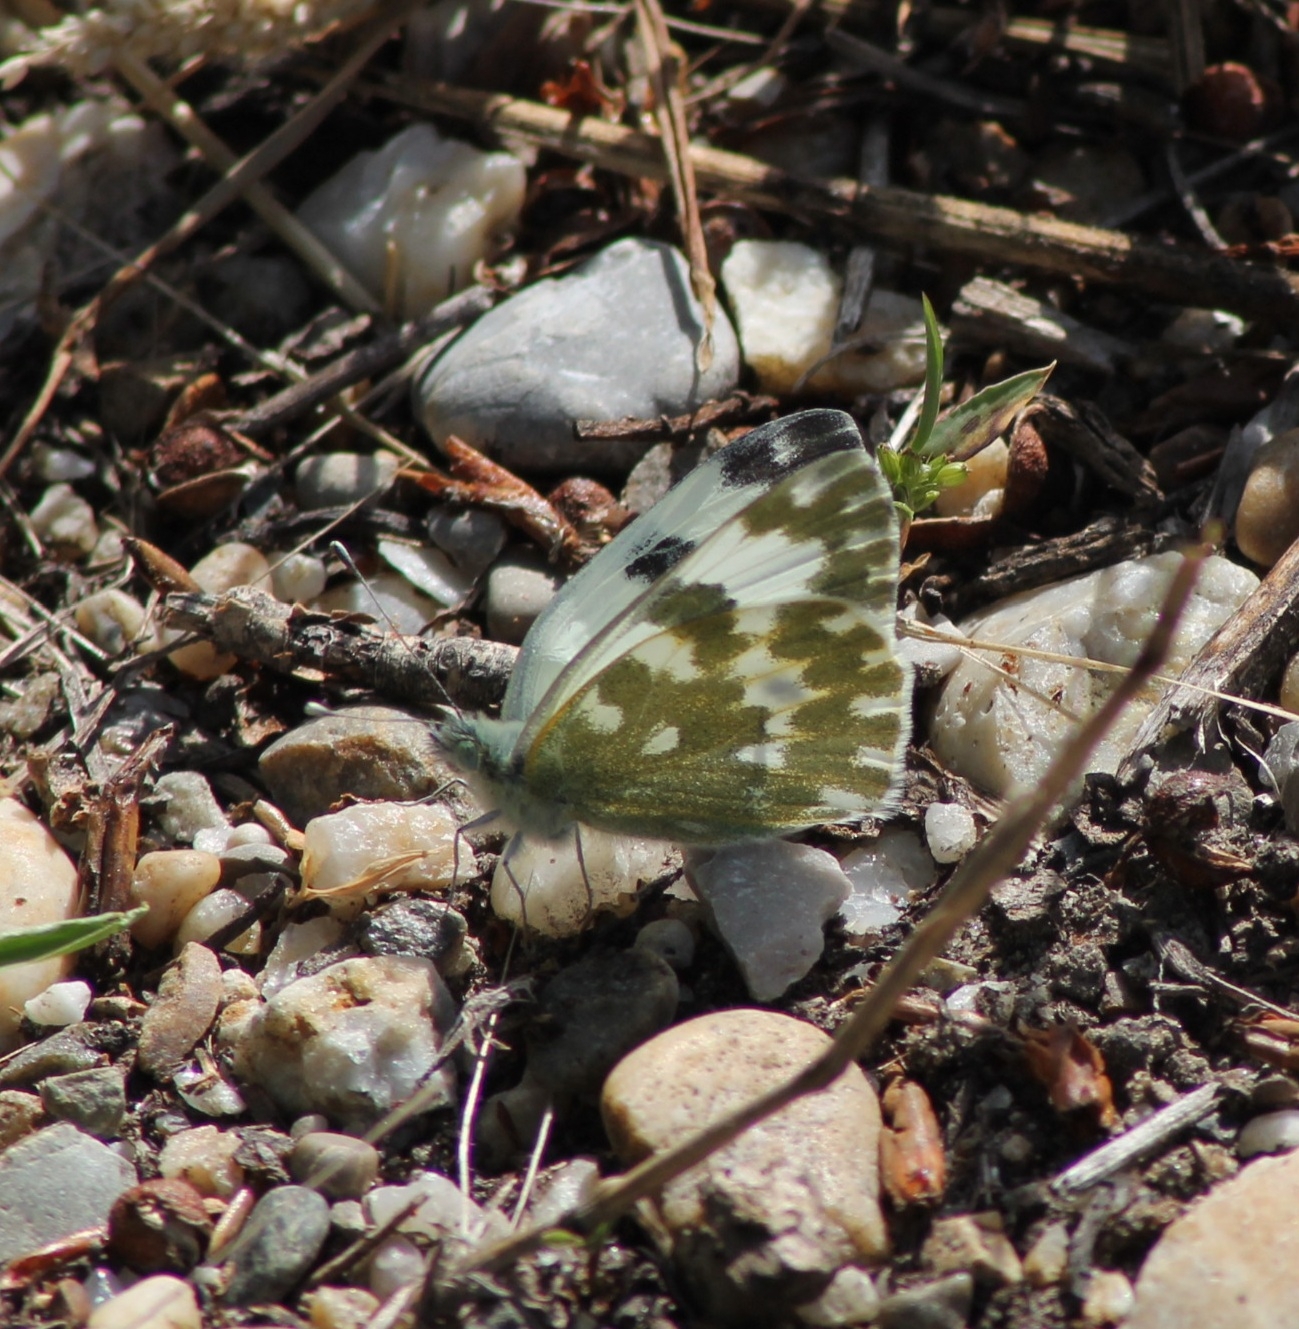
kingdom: Animalia
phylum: Arthropoda
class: Insecta
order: Lepidoptera
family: Pieridae
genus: Pontia
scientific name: Pontia edusa
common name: Eastern bath white
